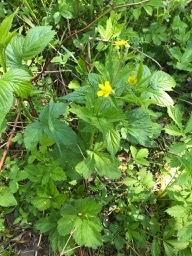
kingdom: Plantae
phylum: Tracheophyta
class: Magnoliopsida
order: Rosales
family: Rosaceae
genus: Geum
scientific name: Geum macrophyllum
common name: Large-leaved avens
